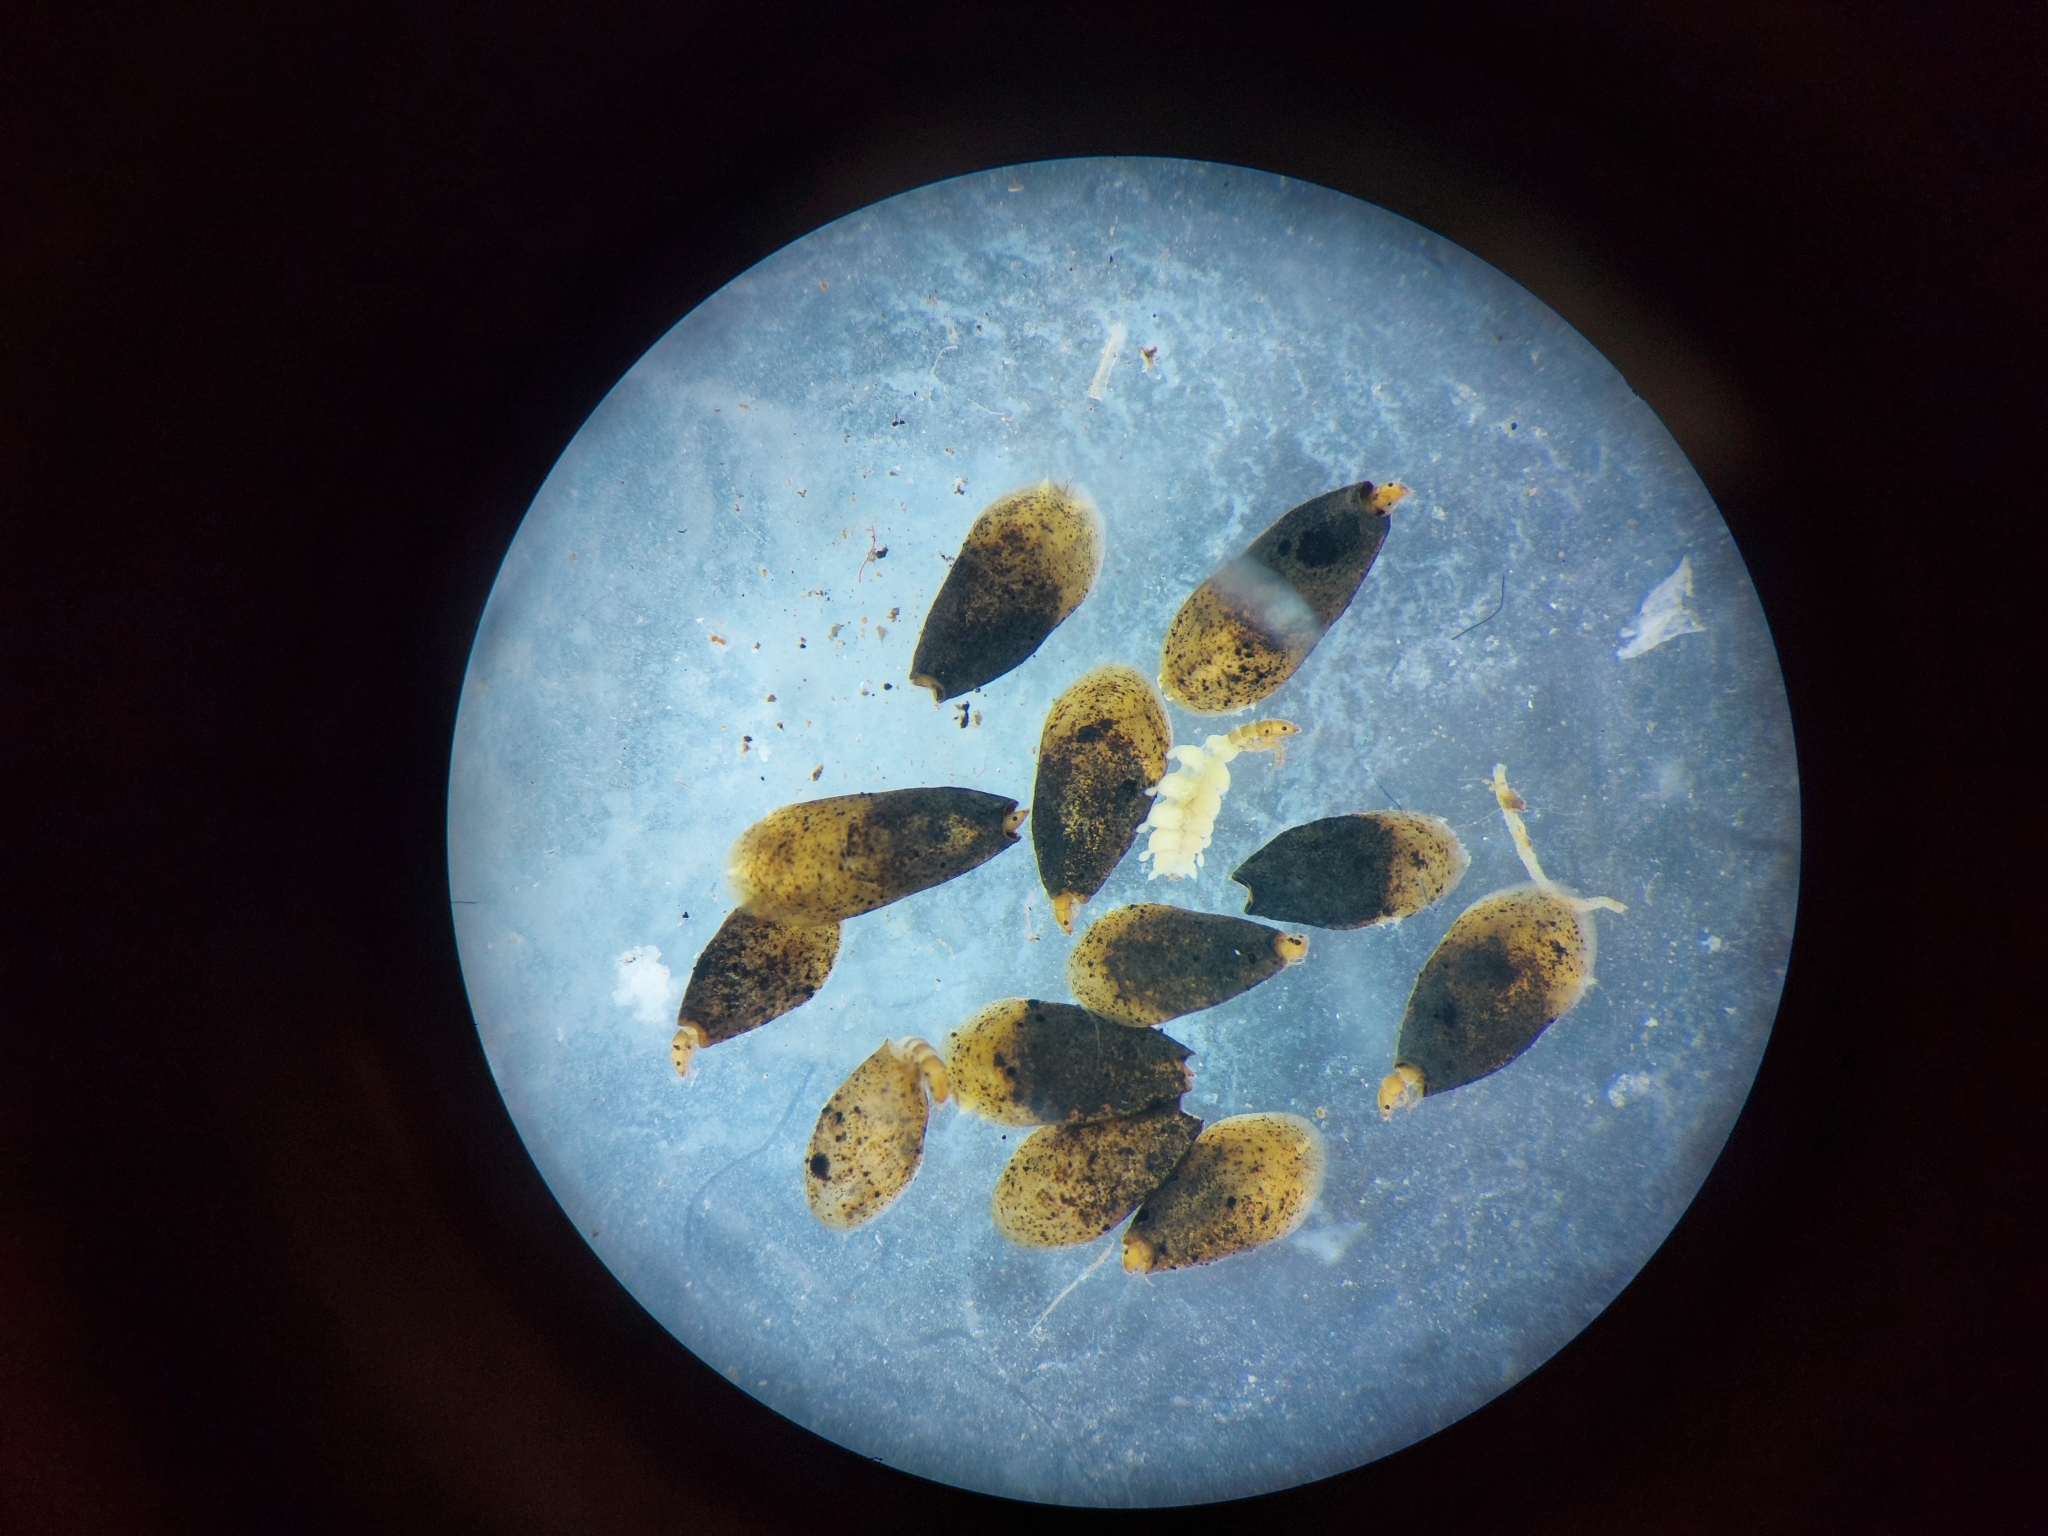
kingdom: Animalia
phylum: Arthropoda
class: Insecta
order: Trichoptera
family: Hydroptilidae
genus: Ithytrichia
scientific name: Ithytrichia lamellaris
